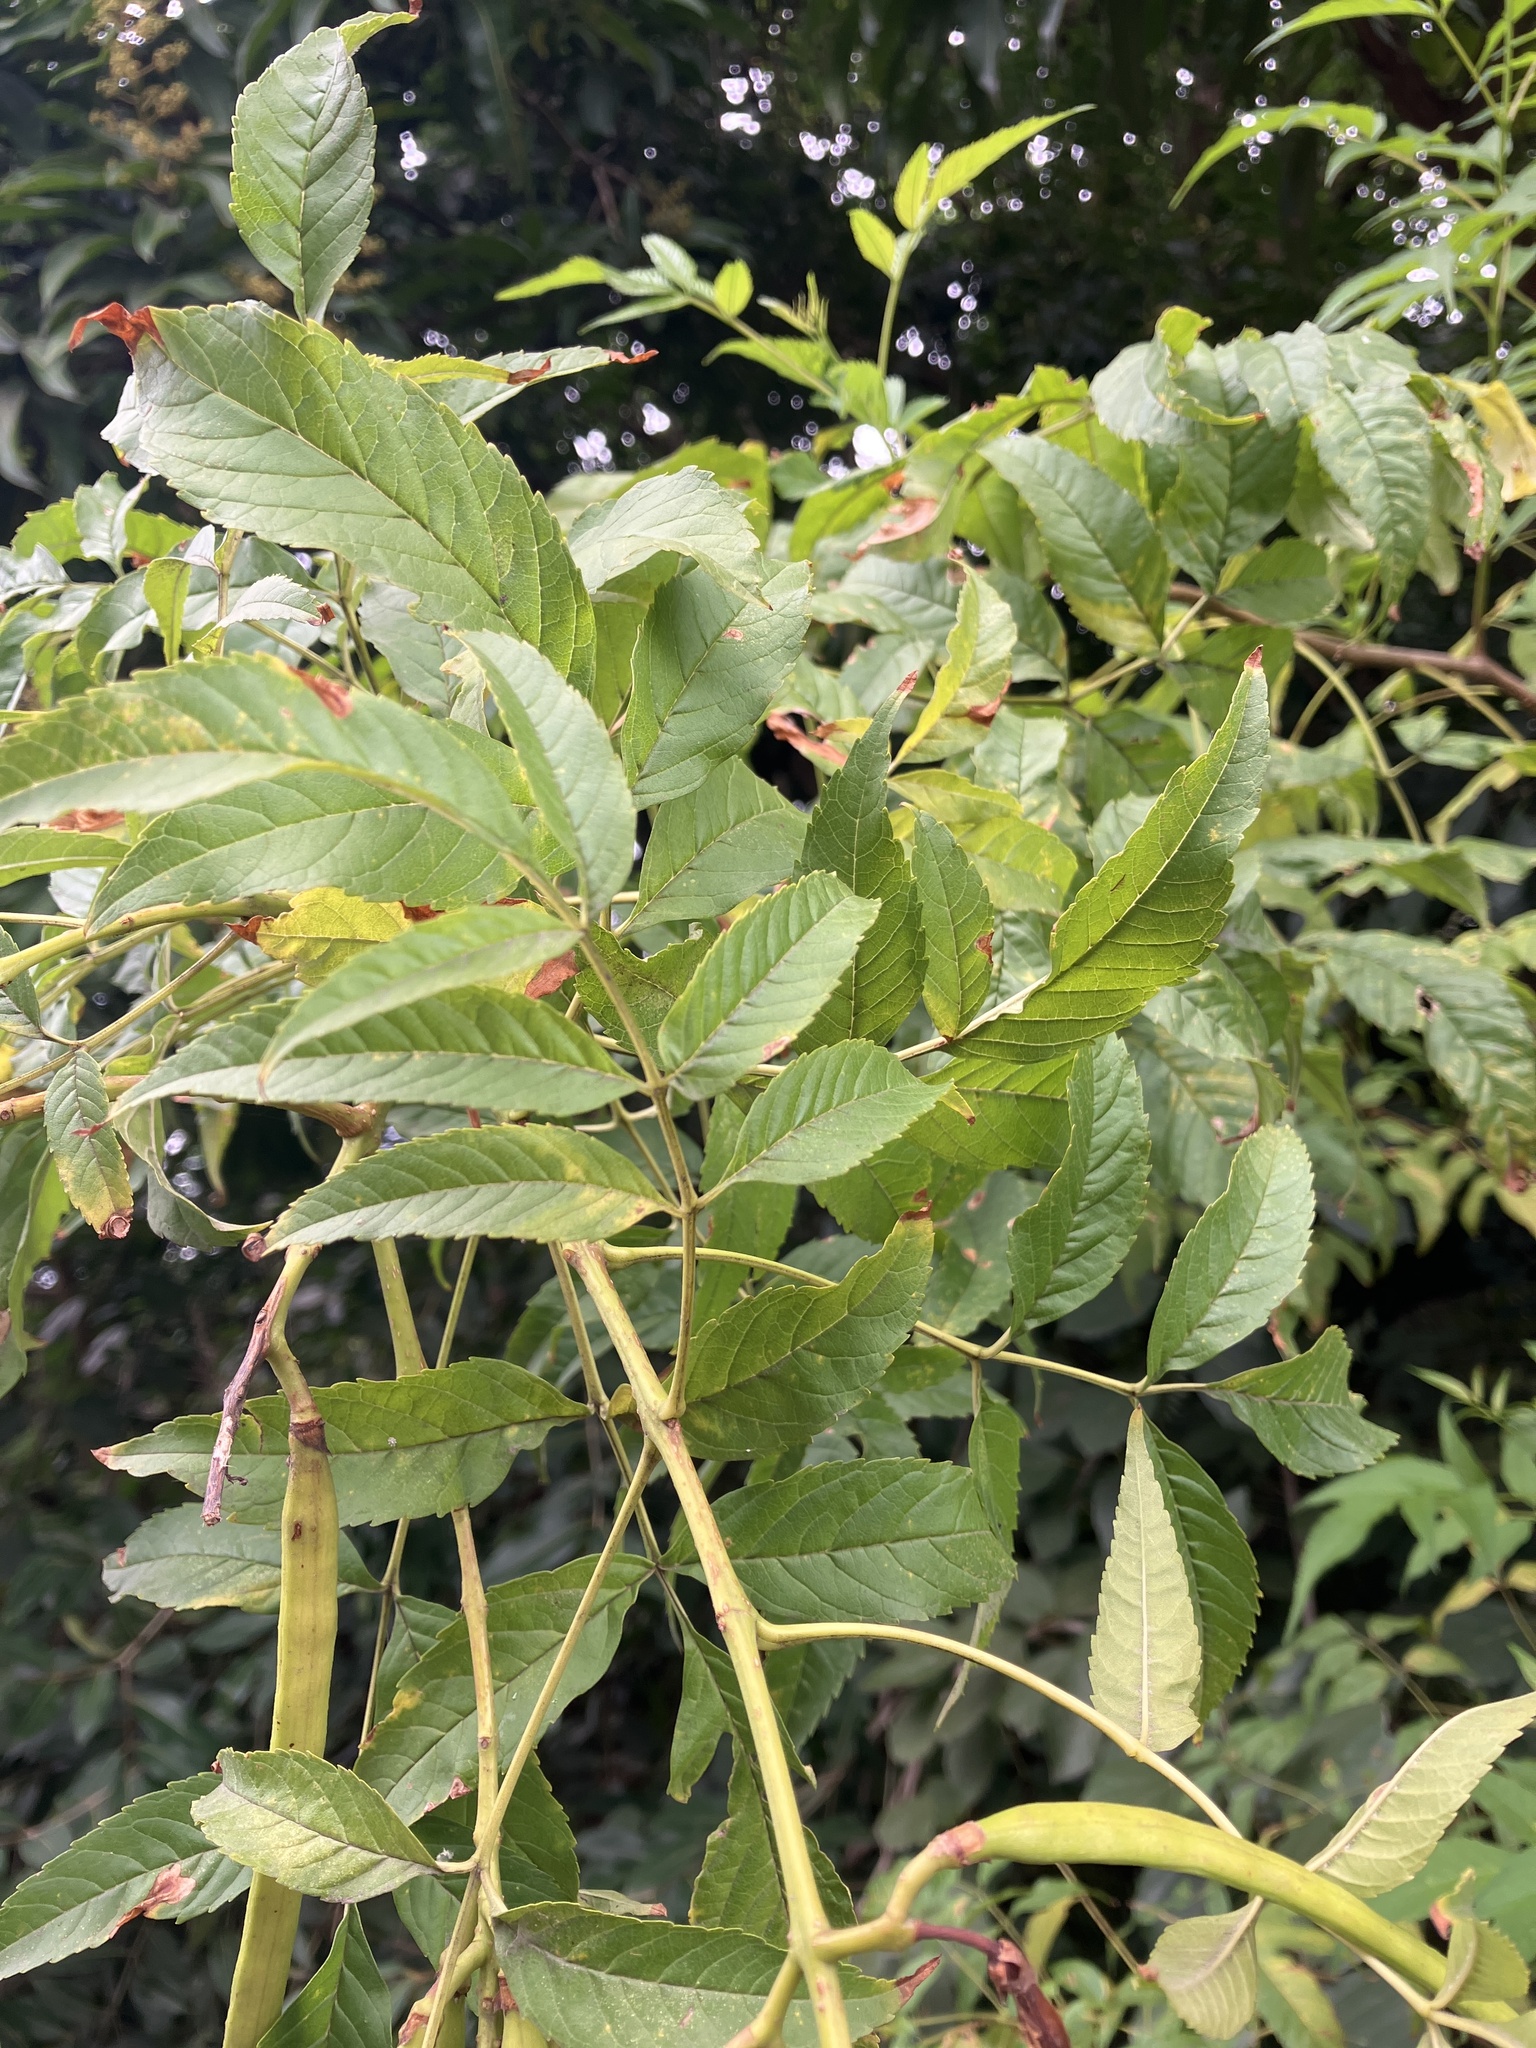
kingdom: Plantae
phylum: Tracheophyta
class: Magnoliopsida
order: Lamiales
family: Bignoniaceae
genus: Tecoma
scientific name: Tecoma stans
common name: Yellow trumpetbush
